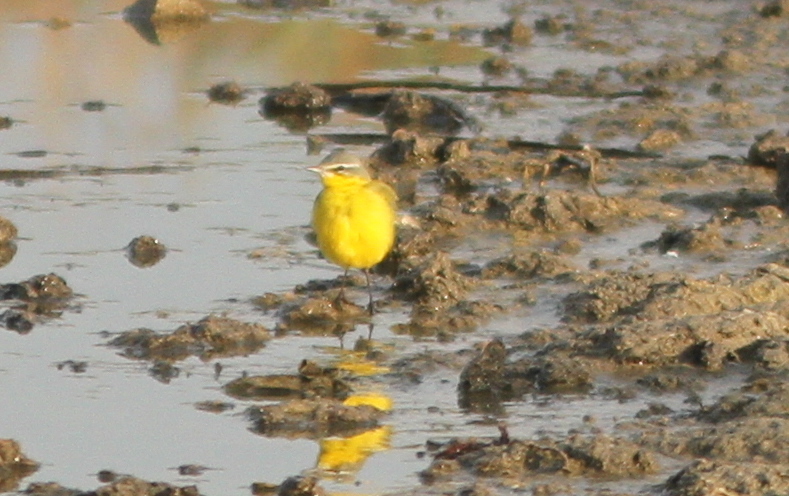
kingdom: Animalia
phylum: Chordata
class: Aves
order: Passeriformes
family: Motacillidae
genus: Motacilla
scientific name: Motacilla flava
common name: Western yellow wagtail
